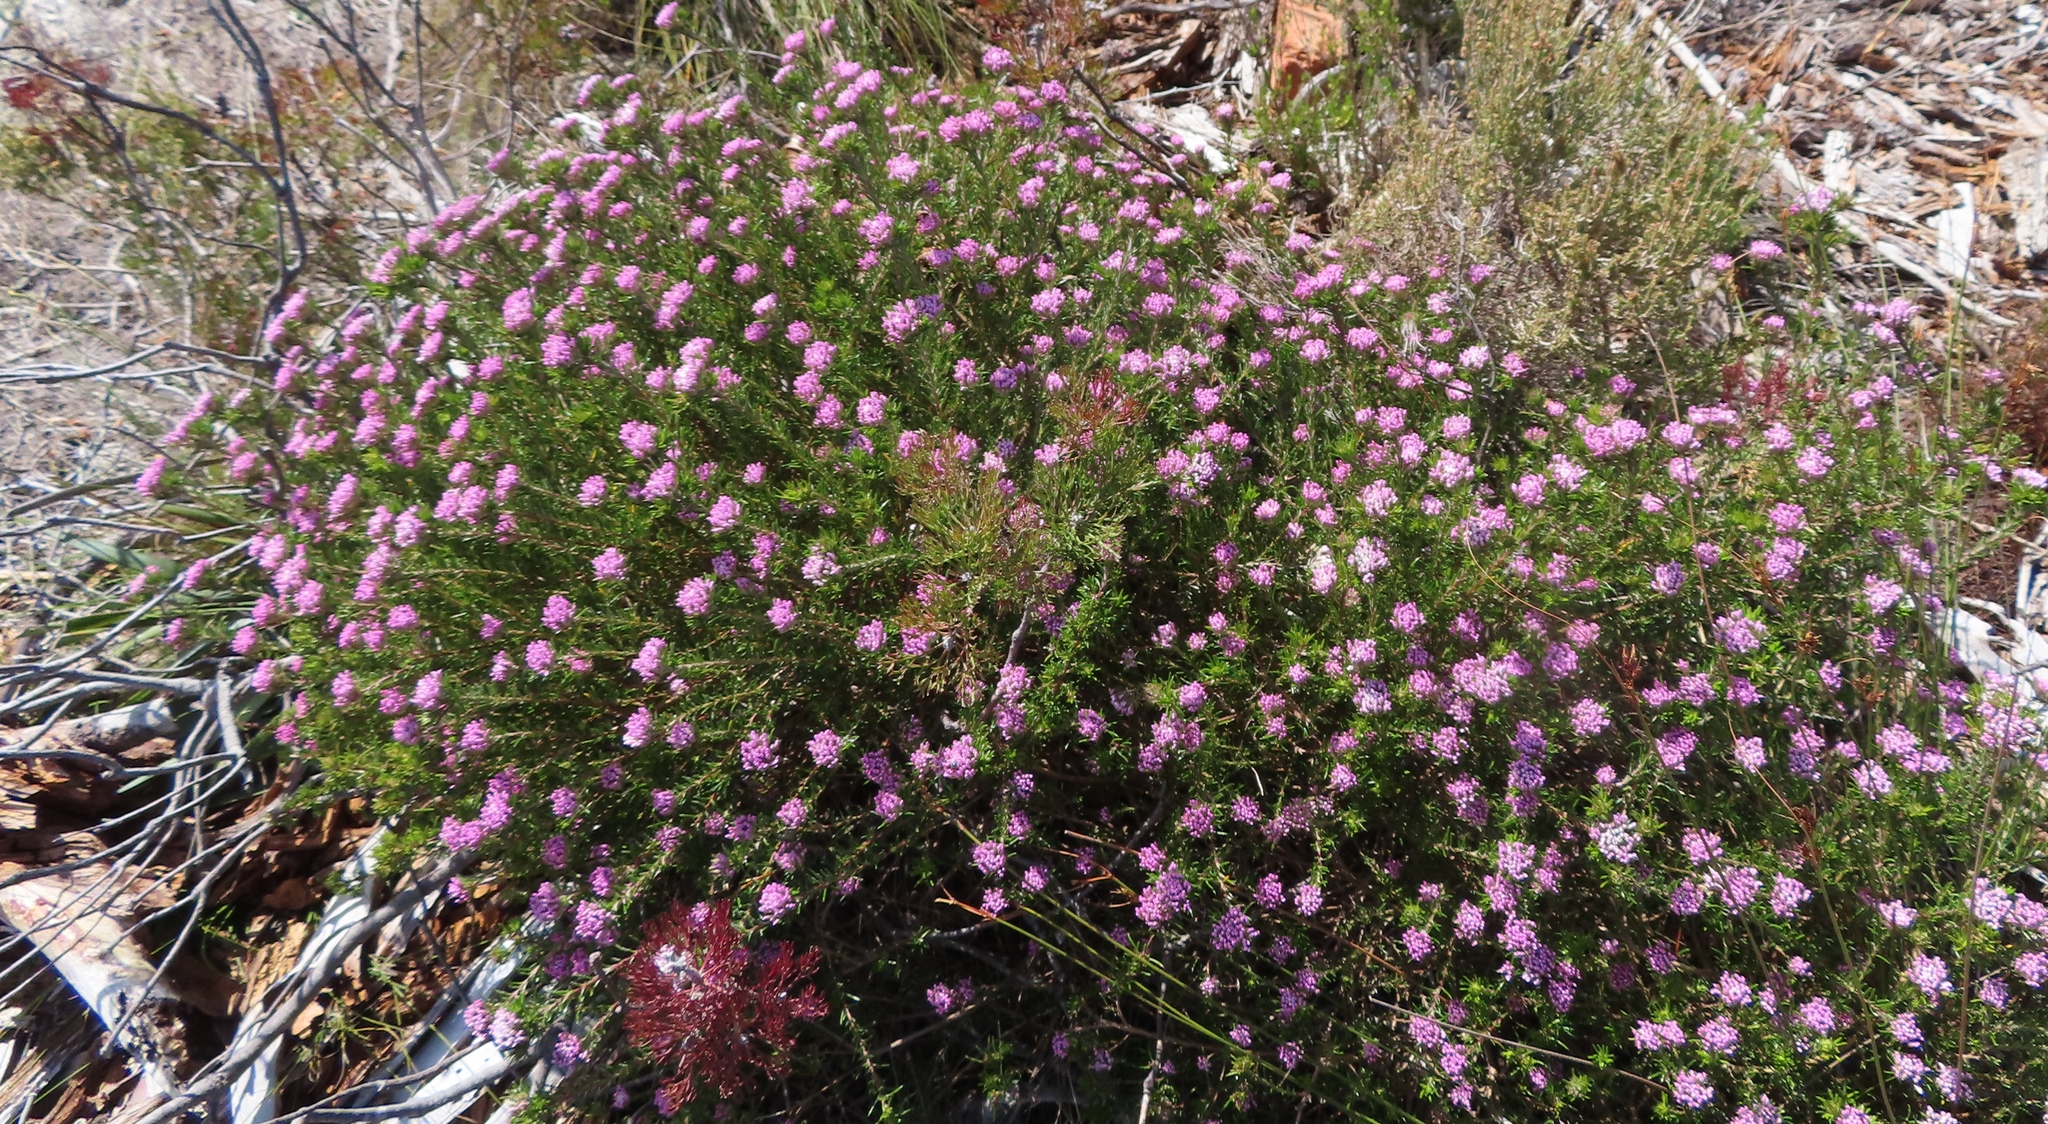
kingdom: Plantae
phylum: Tracheophyta
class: Magnoliopsida
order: Asterales
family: Asteraceae
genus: Metalasia
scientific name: Metalasia erubescens
